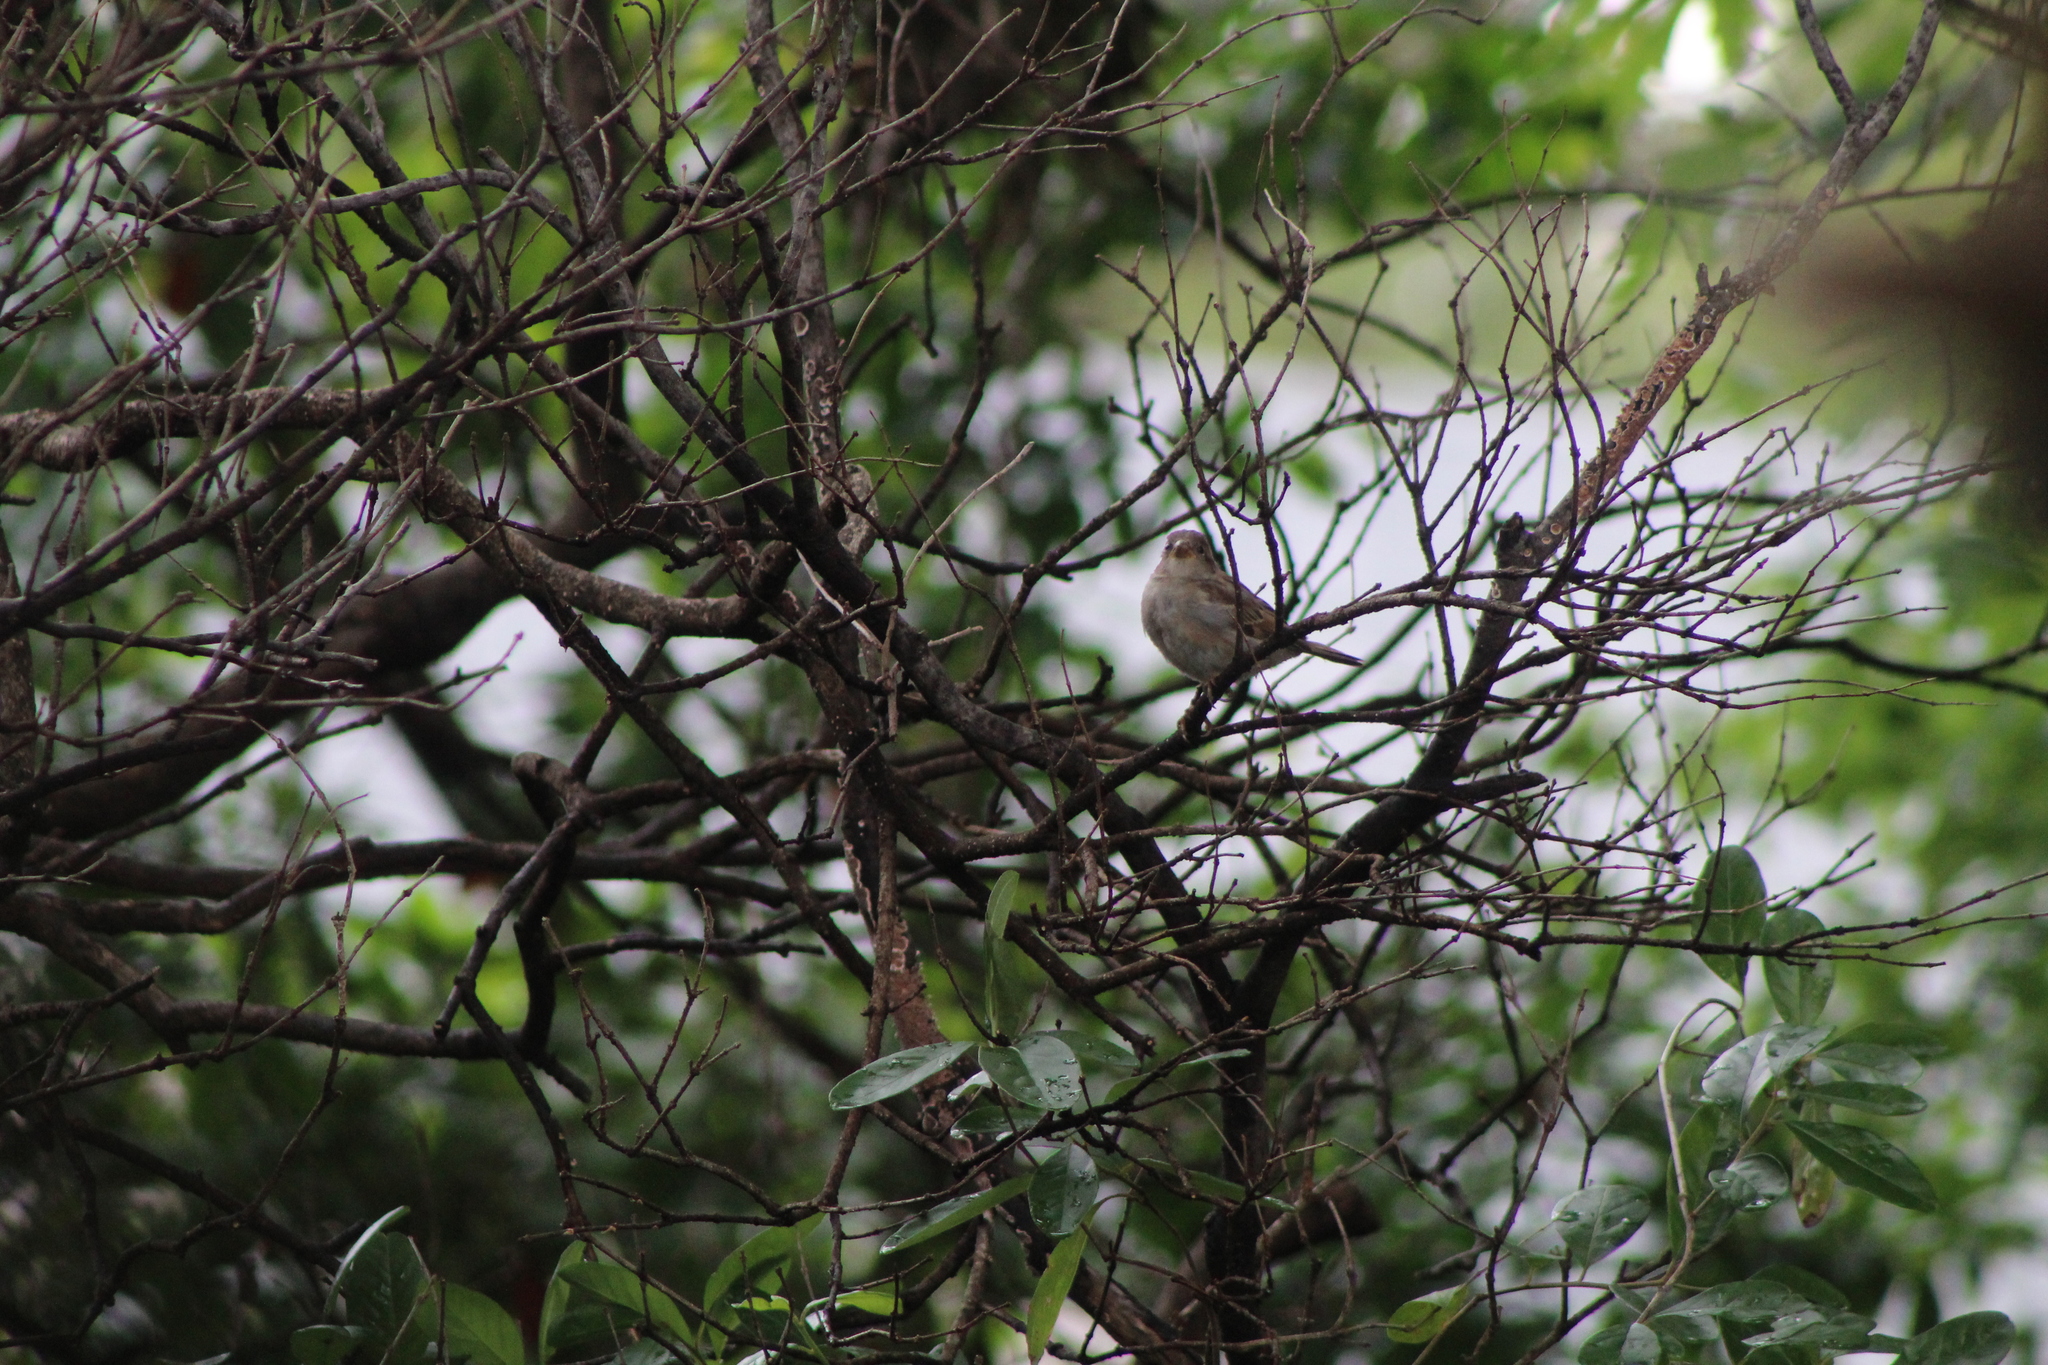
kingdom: Animalia
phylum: Chordata
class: Aves
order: Passeriformes
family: Passeridae
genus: Passer
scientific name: Passer domesticus
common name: House sparrow
